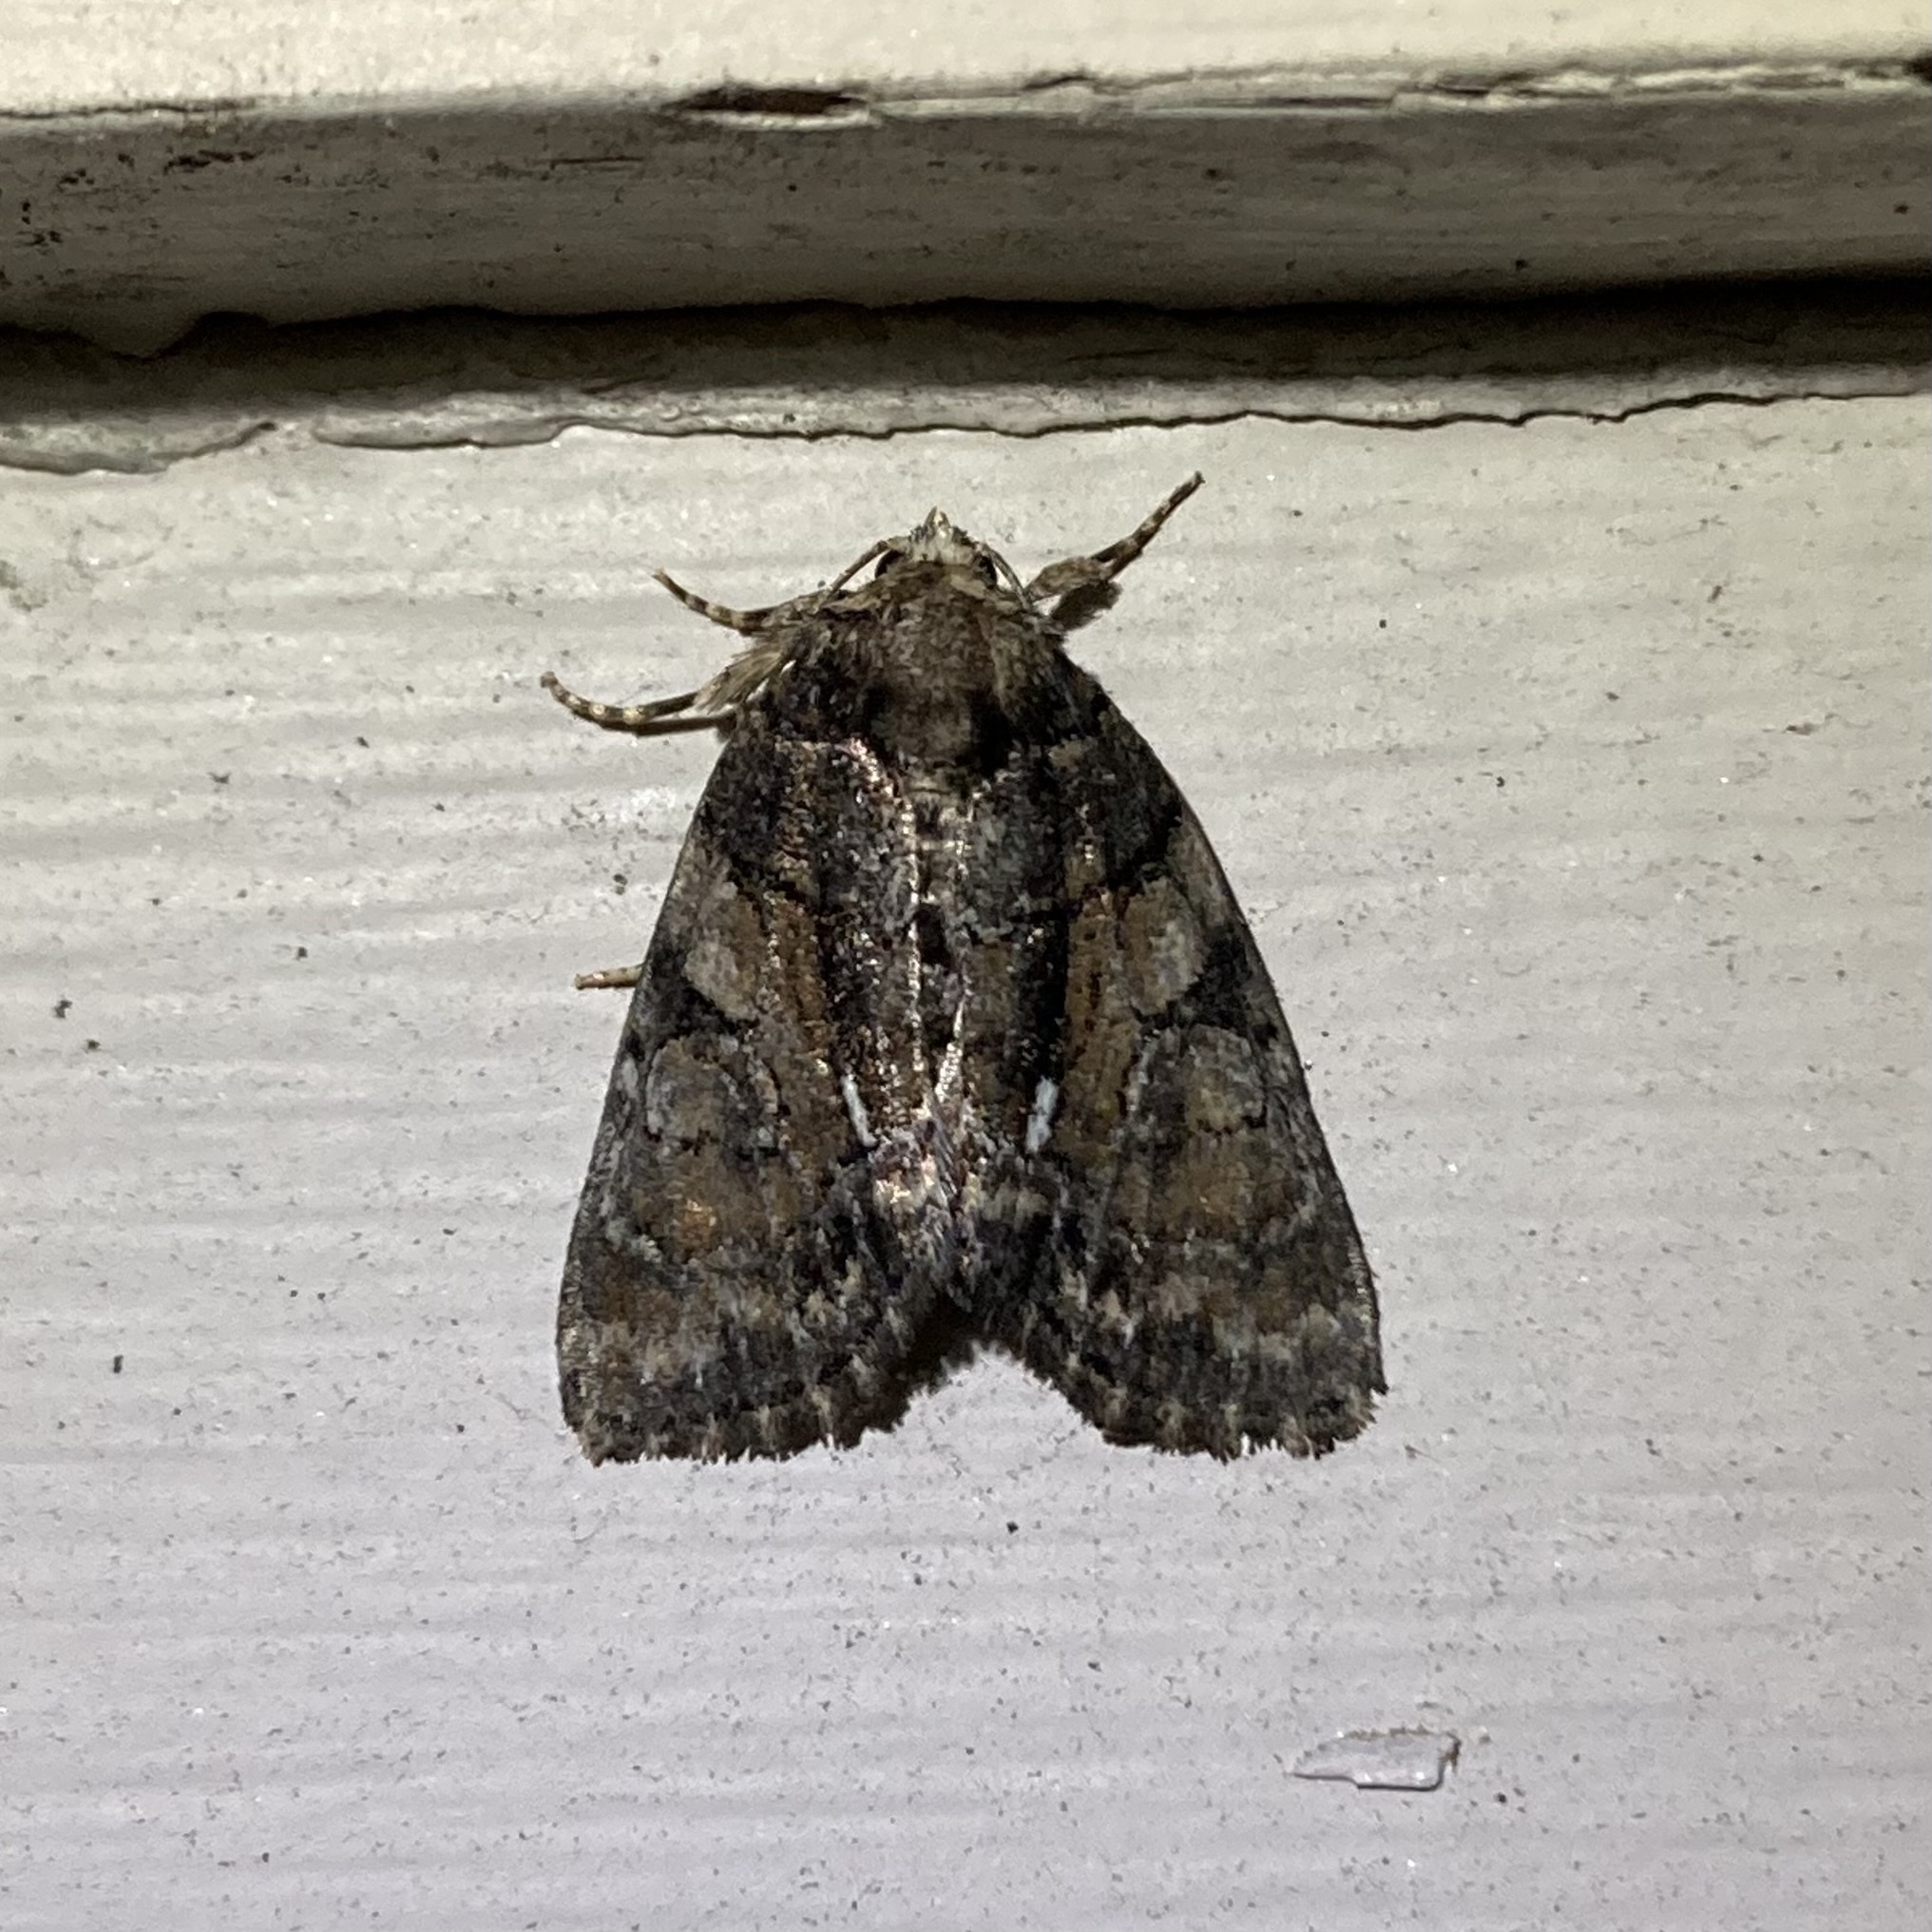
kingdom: Animalia
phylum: Arthropoda
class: Insecta
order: Lepidoptera
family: Noctuidae
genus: Chytonix
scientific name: Chytonix palliatricula
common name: Cloaked marvel
